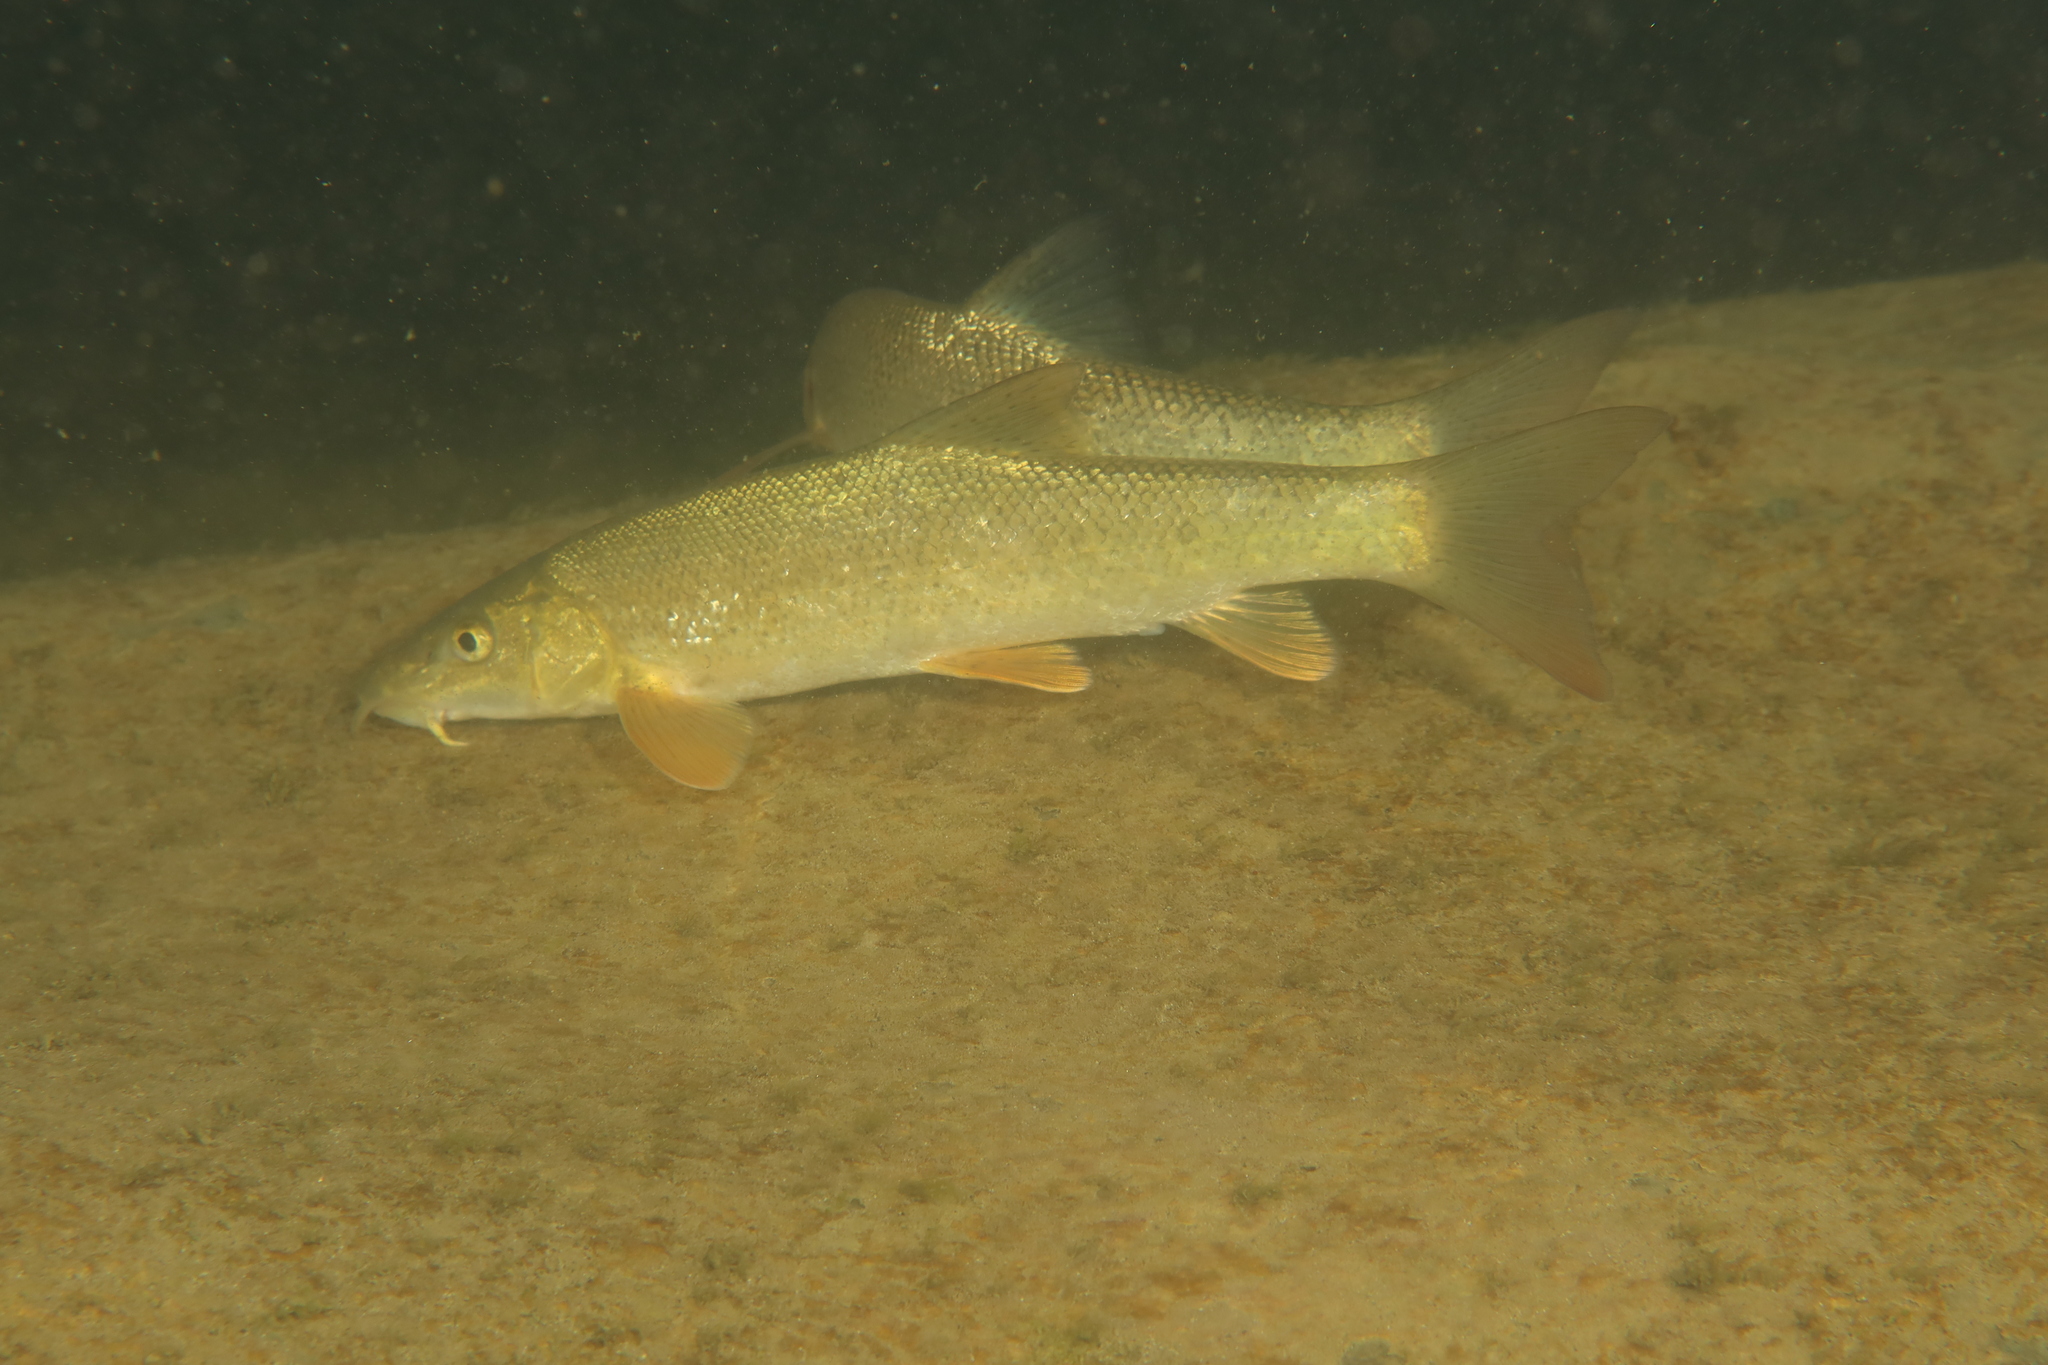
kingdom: Animalia
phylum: Chordata
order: Cypriniformes
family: Cyprinidae
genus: Barbus
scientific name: Barbus barbus
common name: Barbel
